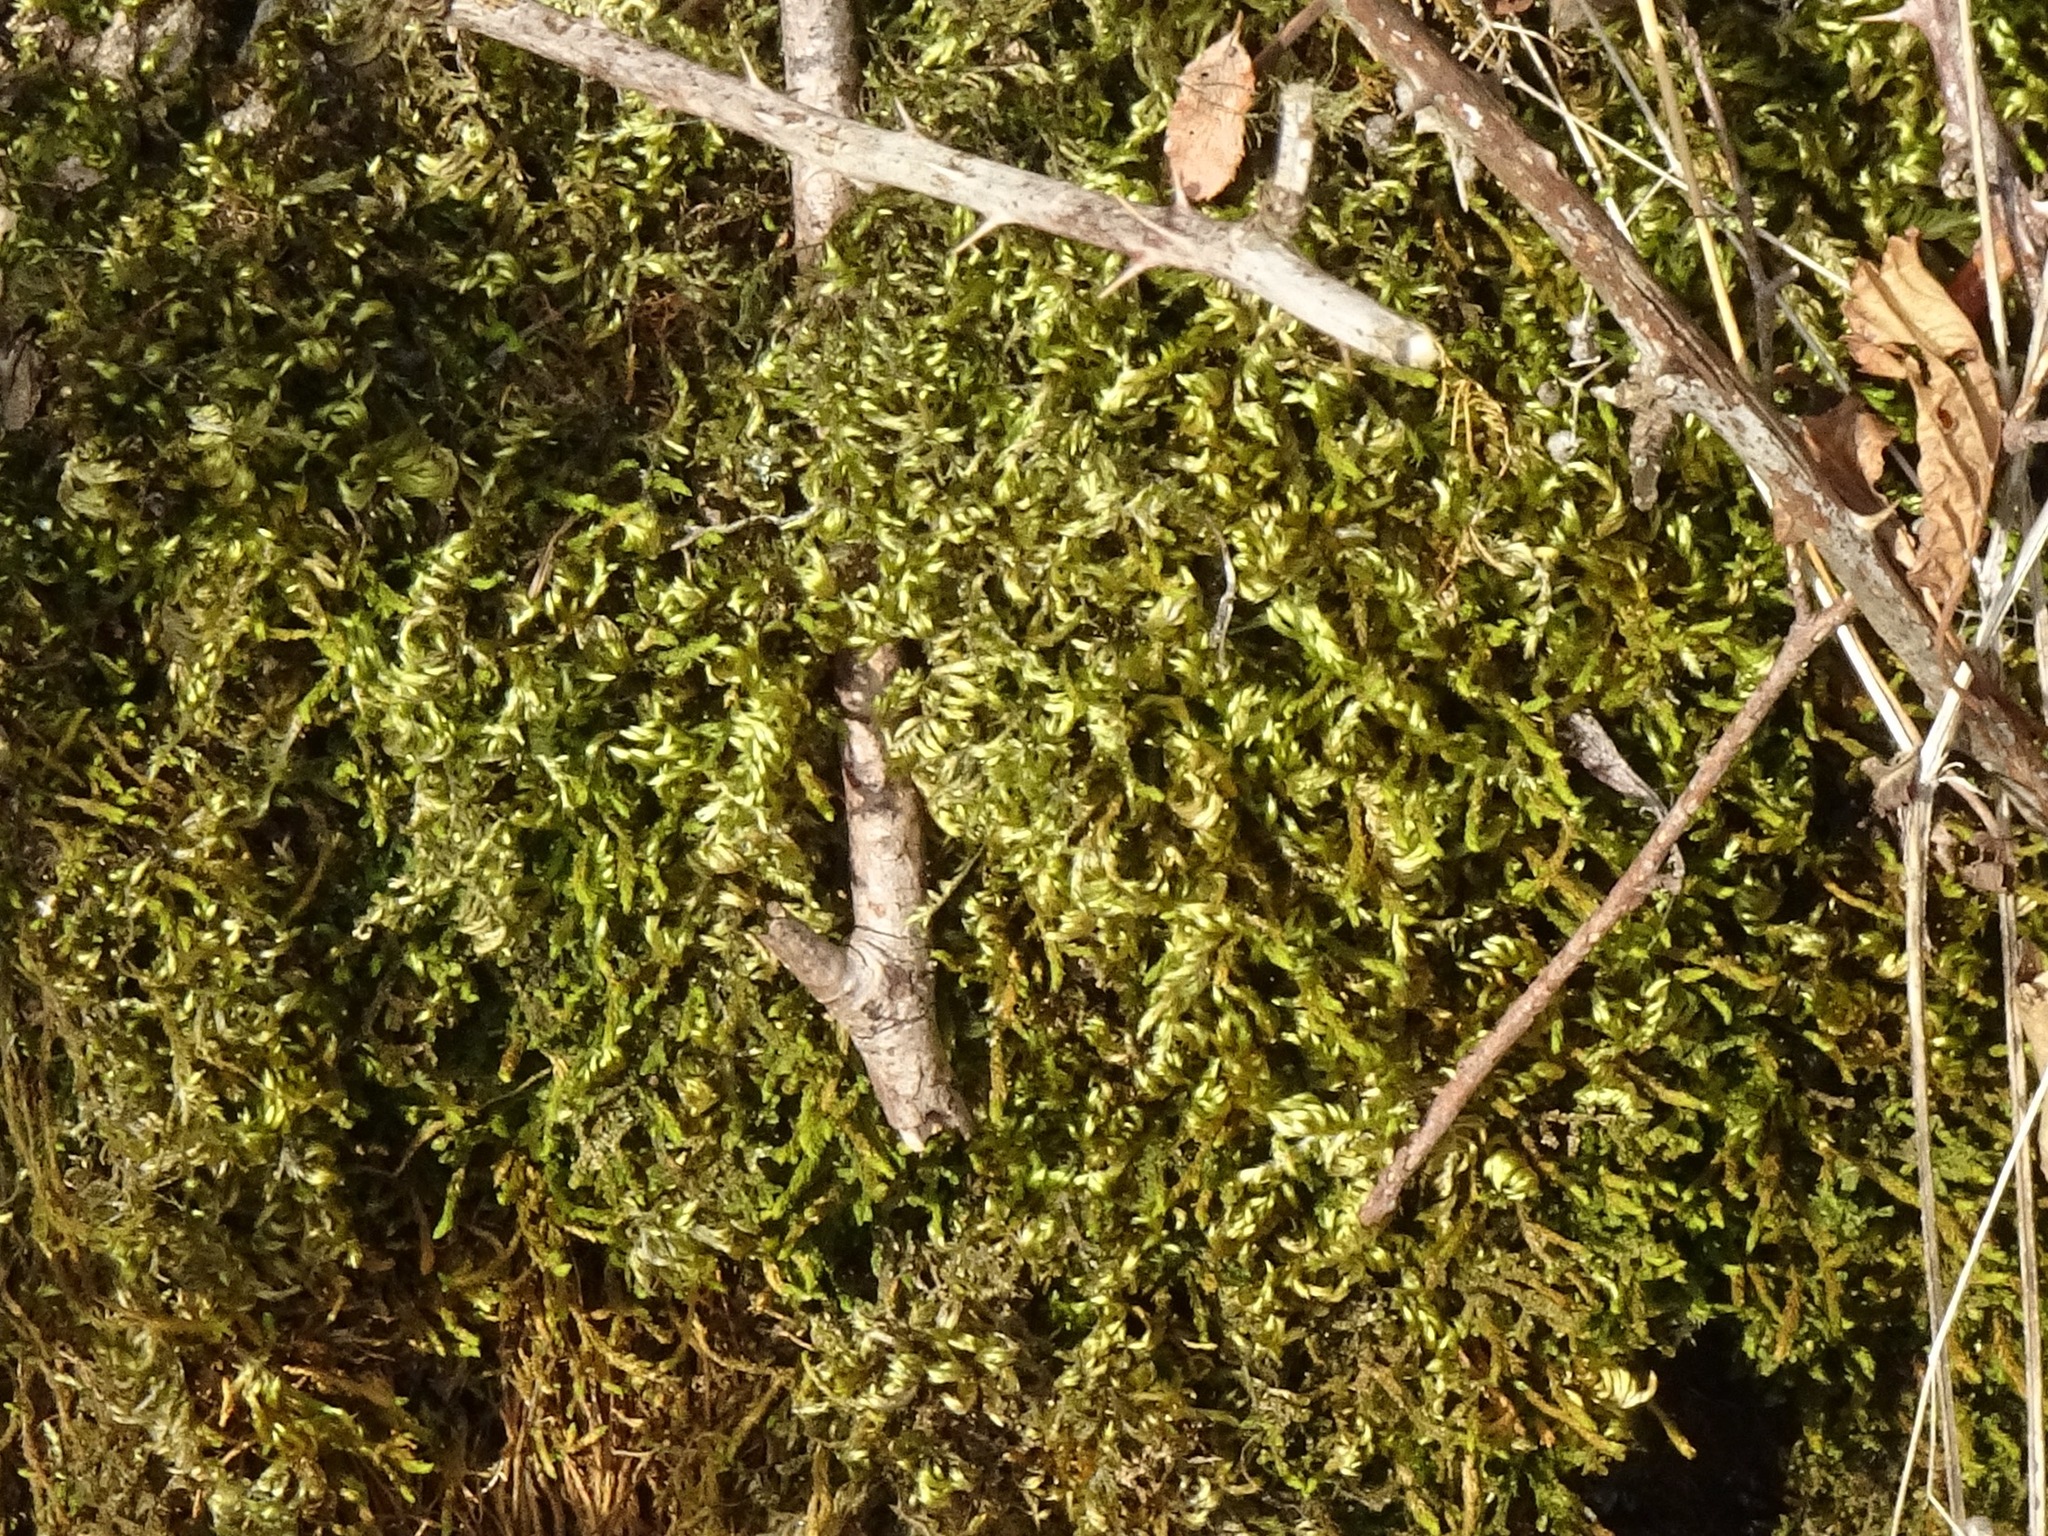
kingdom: Plantae
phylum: Bryophyta
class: Bryopsida
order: Hypnales
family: Brachytheciaceae
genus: Homalothecium
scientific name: Homalothecium sericeum
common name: Silky wall feather-moss
